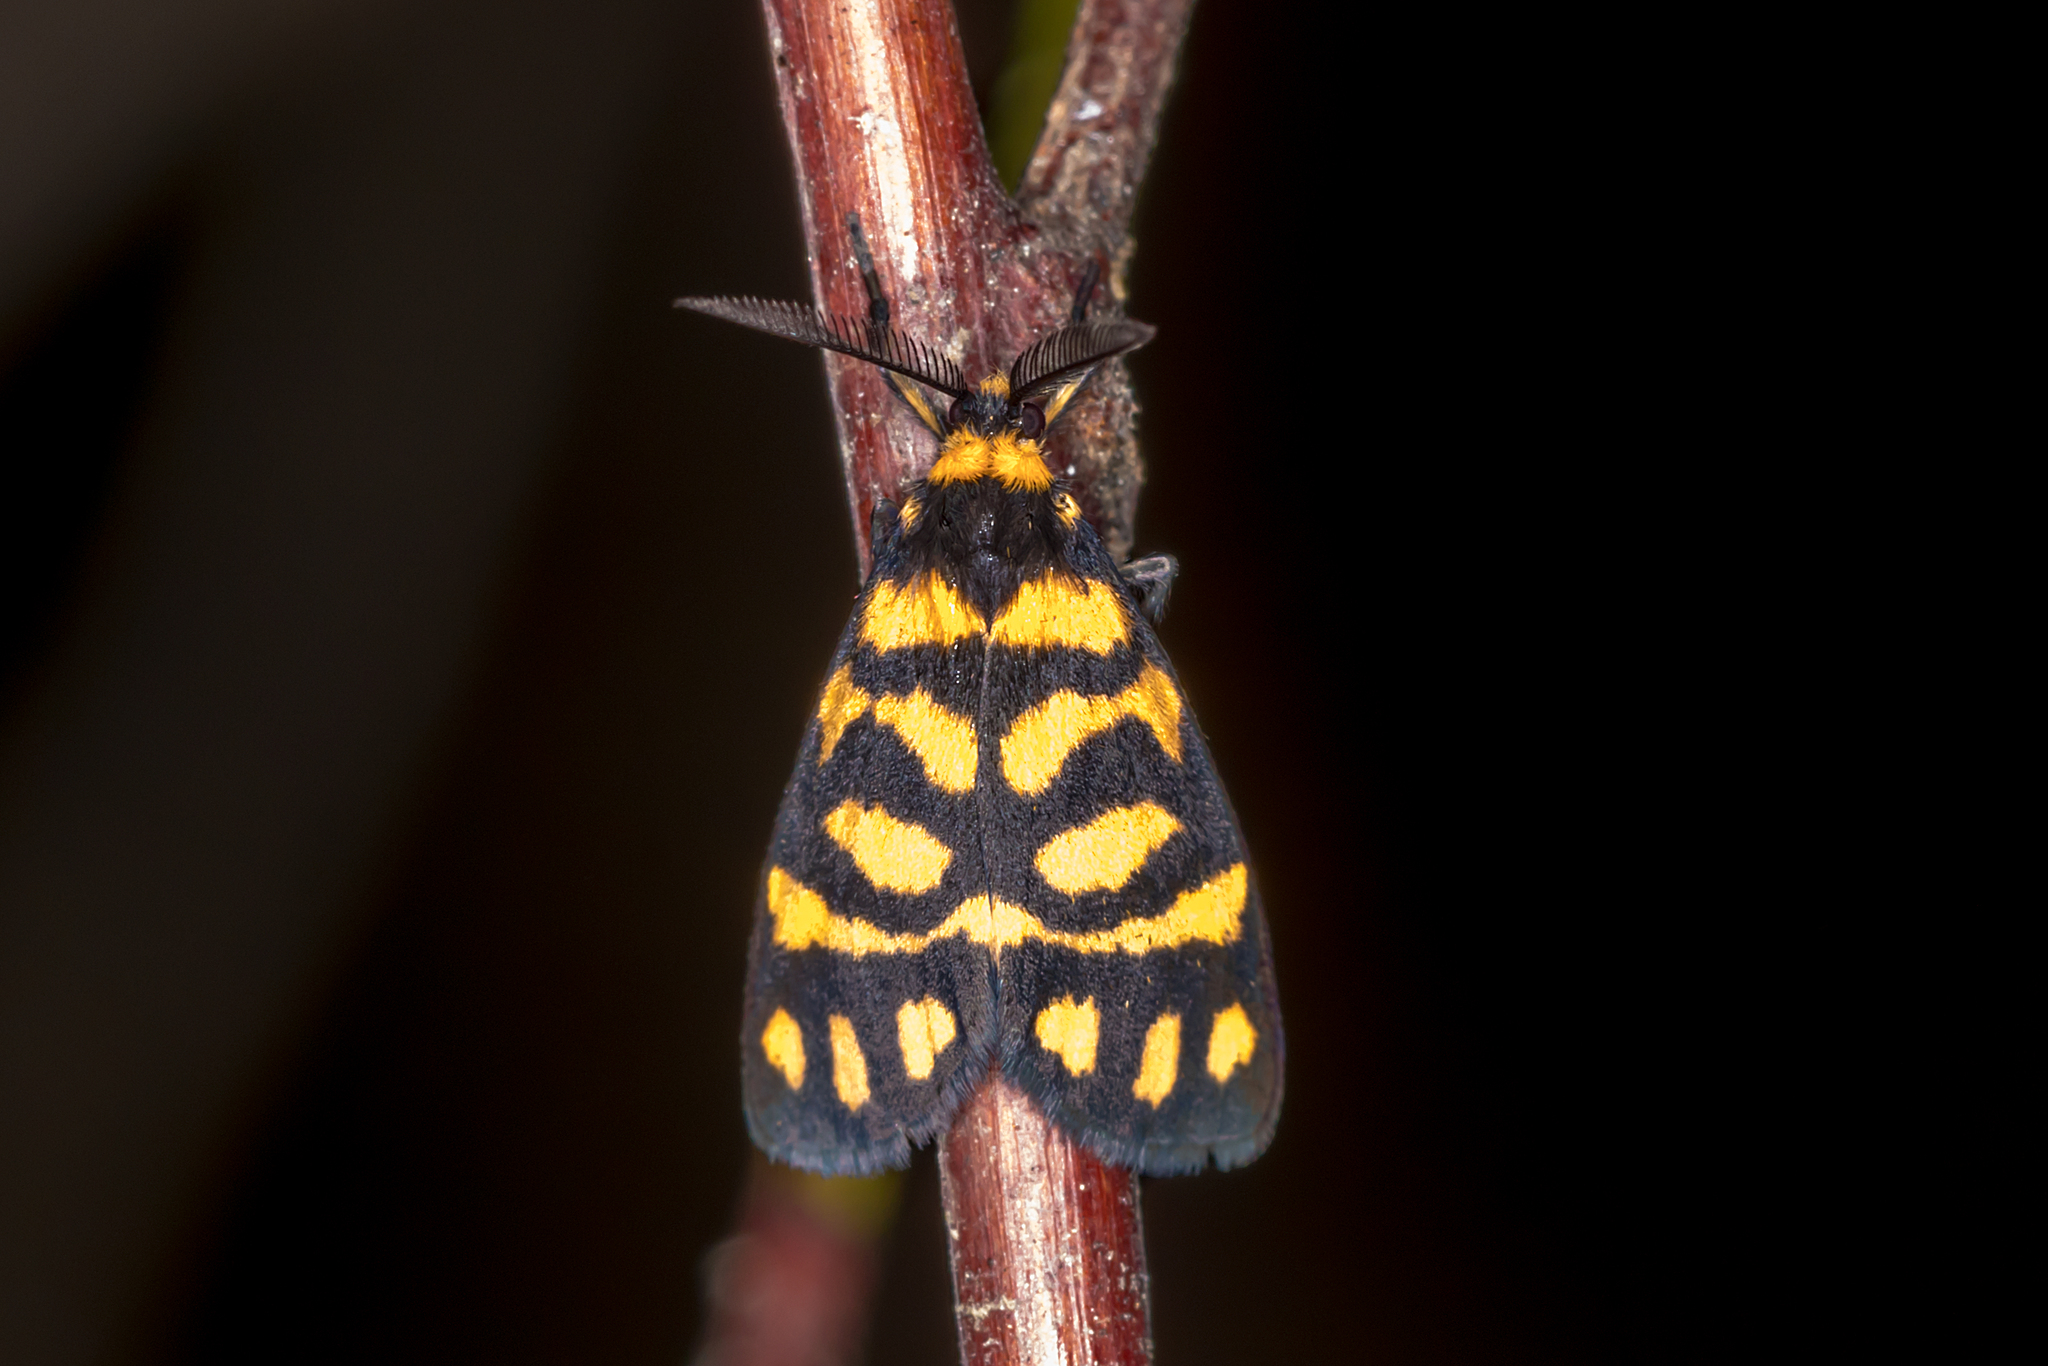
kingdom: Animalia
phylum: Arthropoda
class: Insecta
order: Lepidoptera
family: Erebidae
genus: Asura
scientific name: Asura lydia
